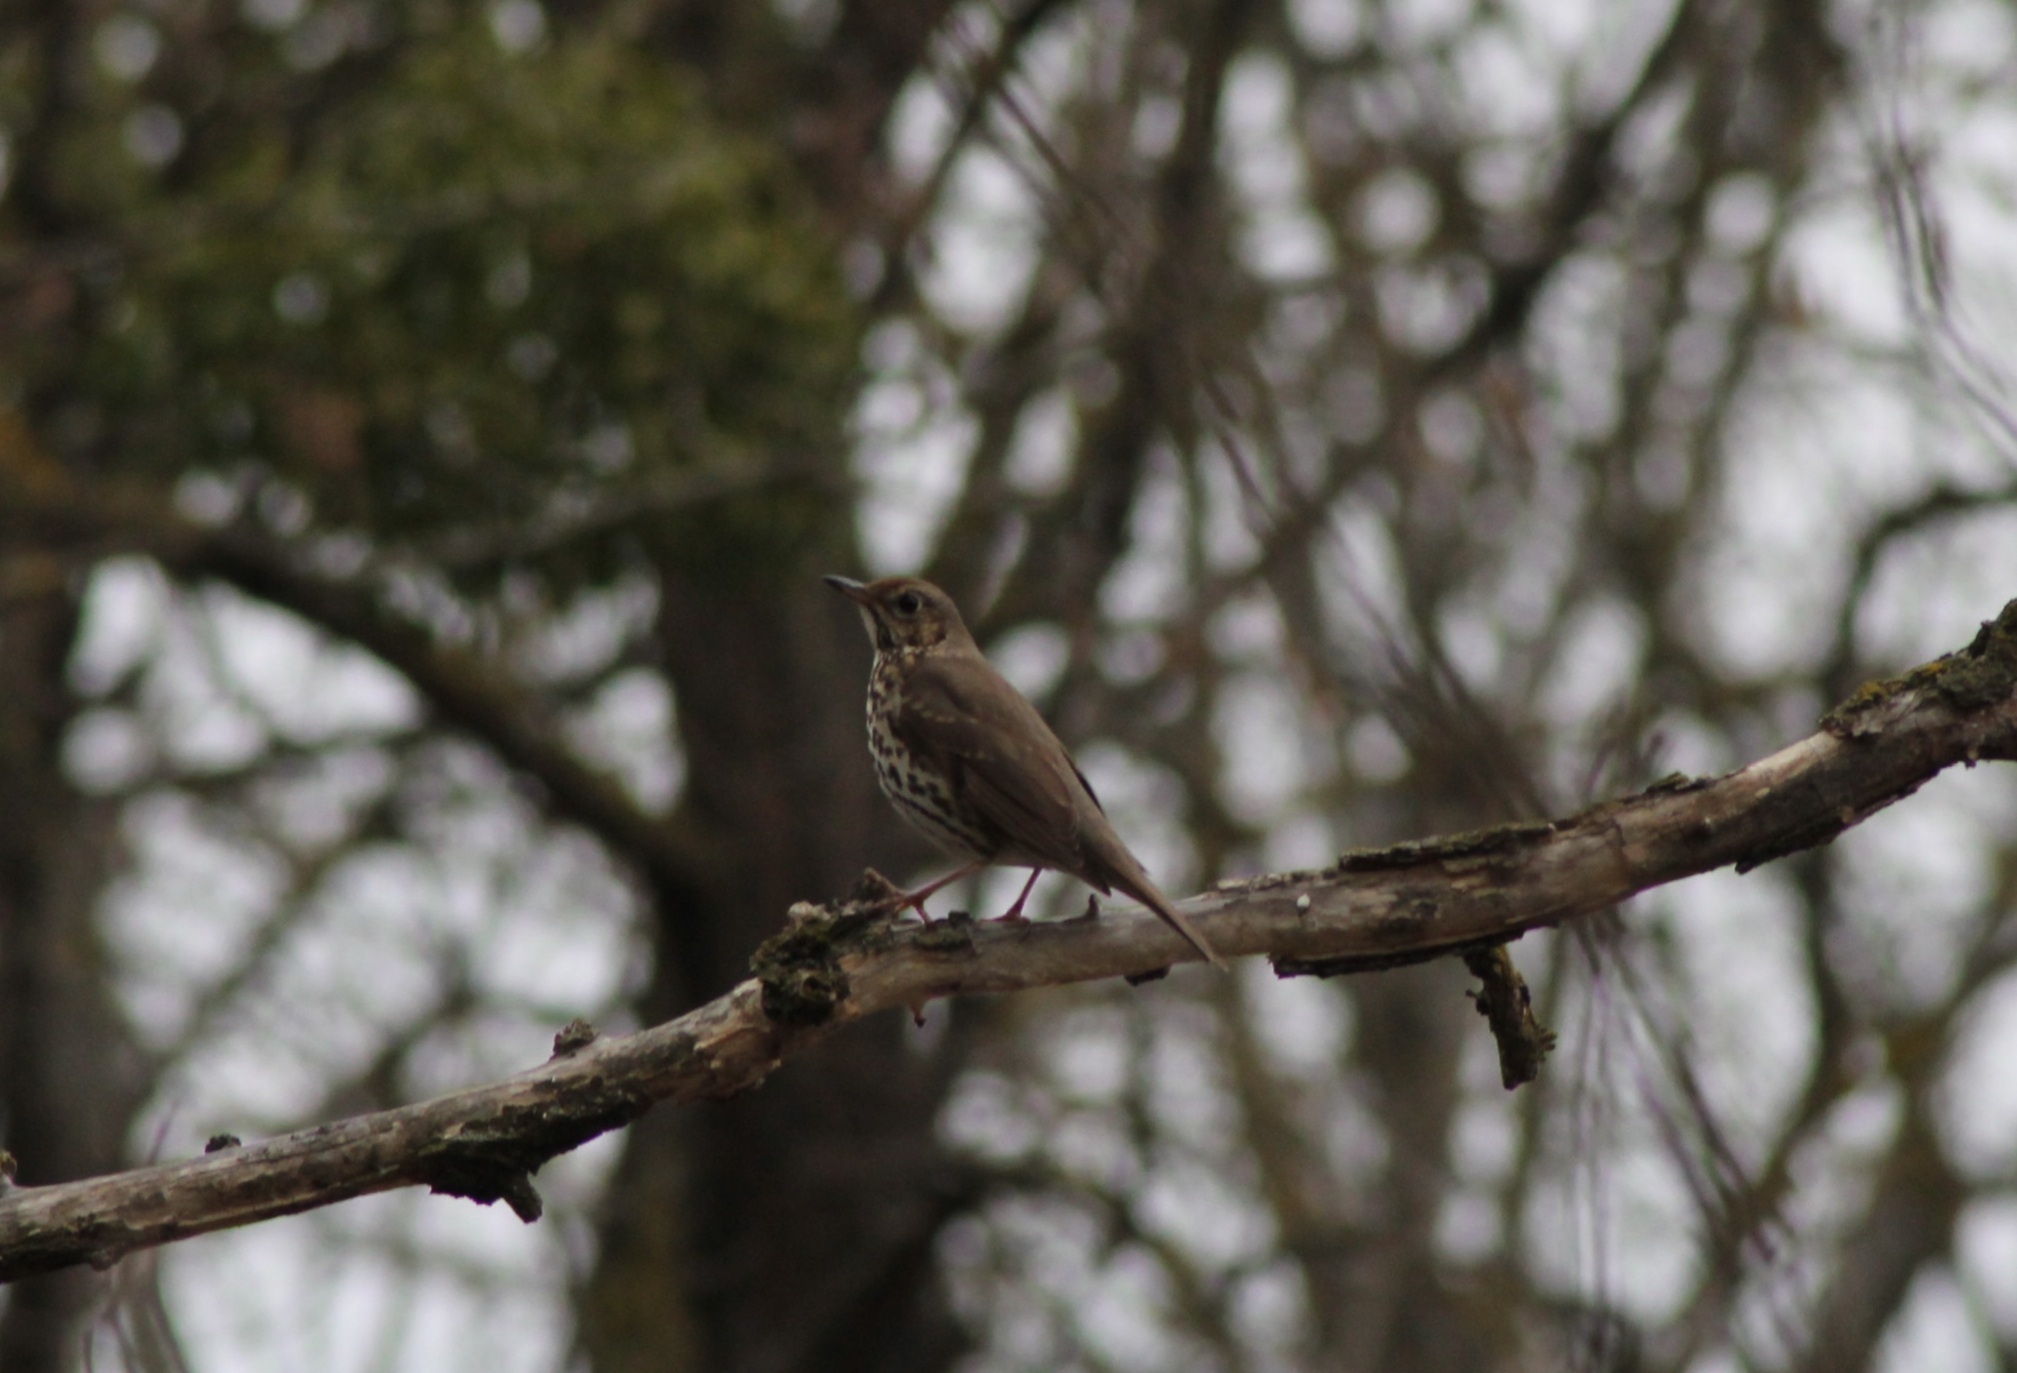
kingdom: Animalia
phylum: Chordata
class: Aves
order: Passeriformes
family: Turdidae
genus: Turdus
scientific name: Turdus philomelos
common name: Song thrush
